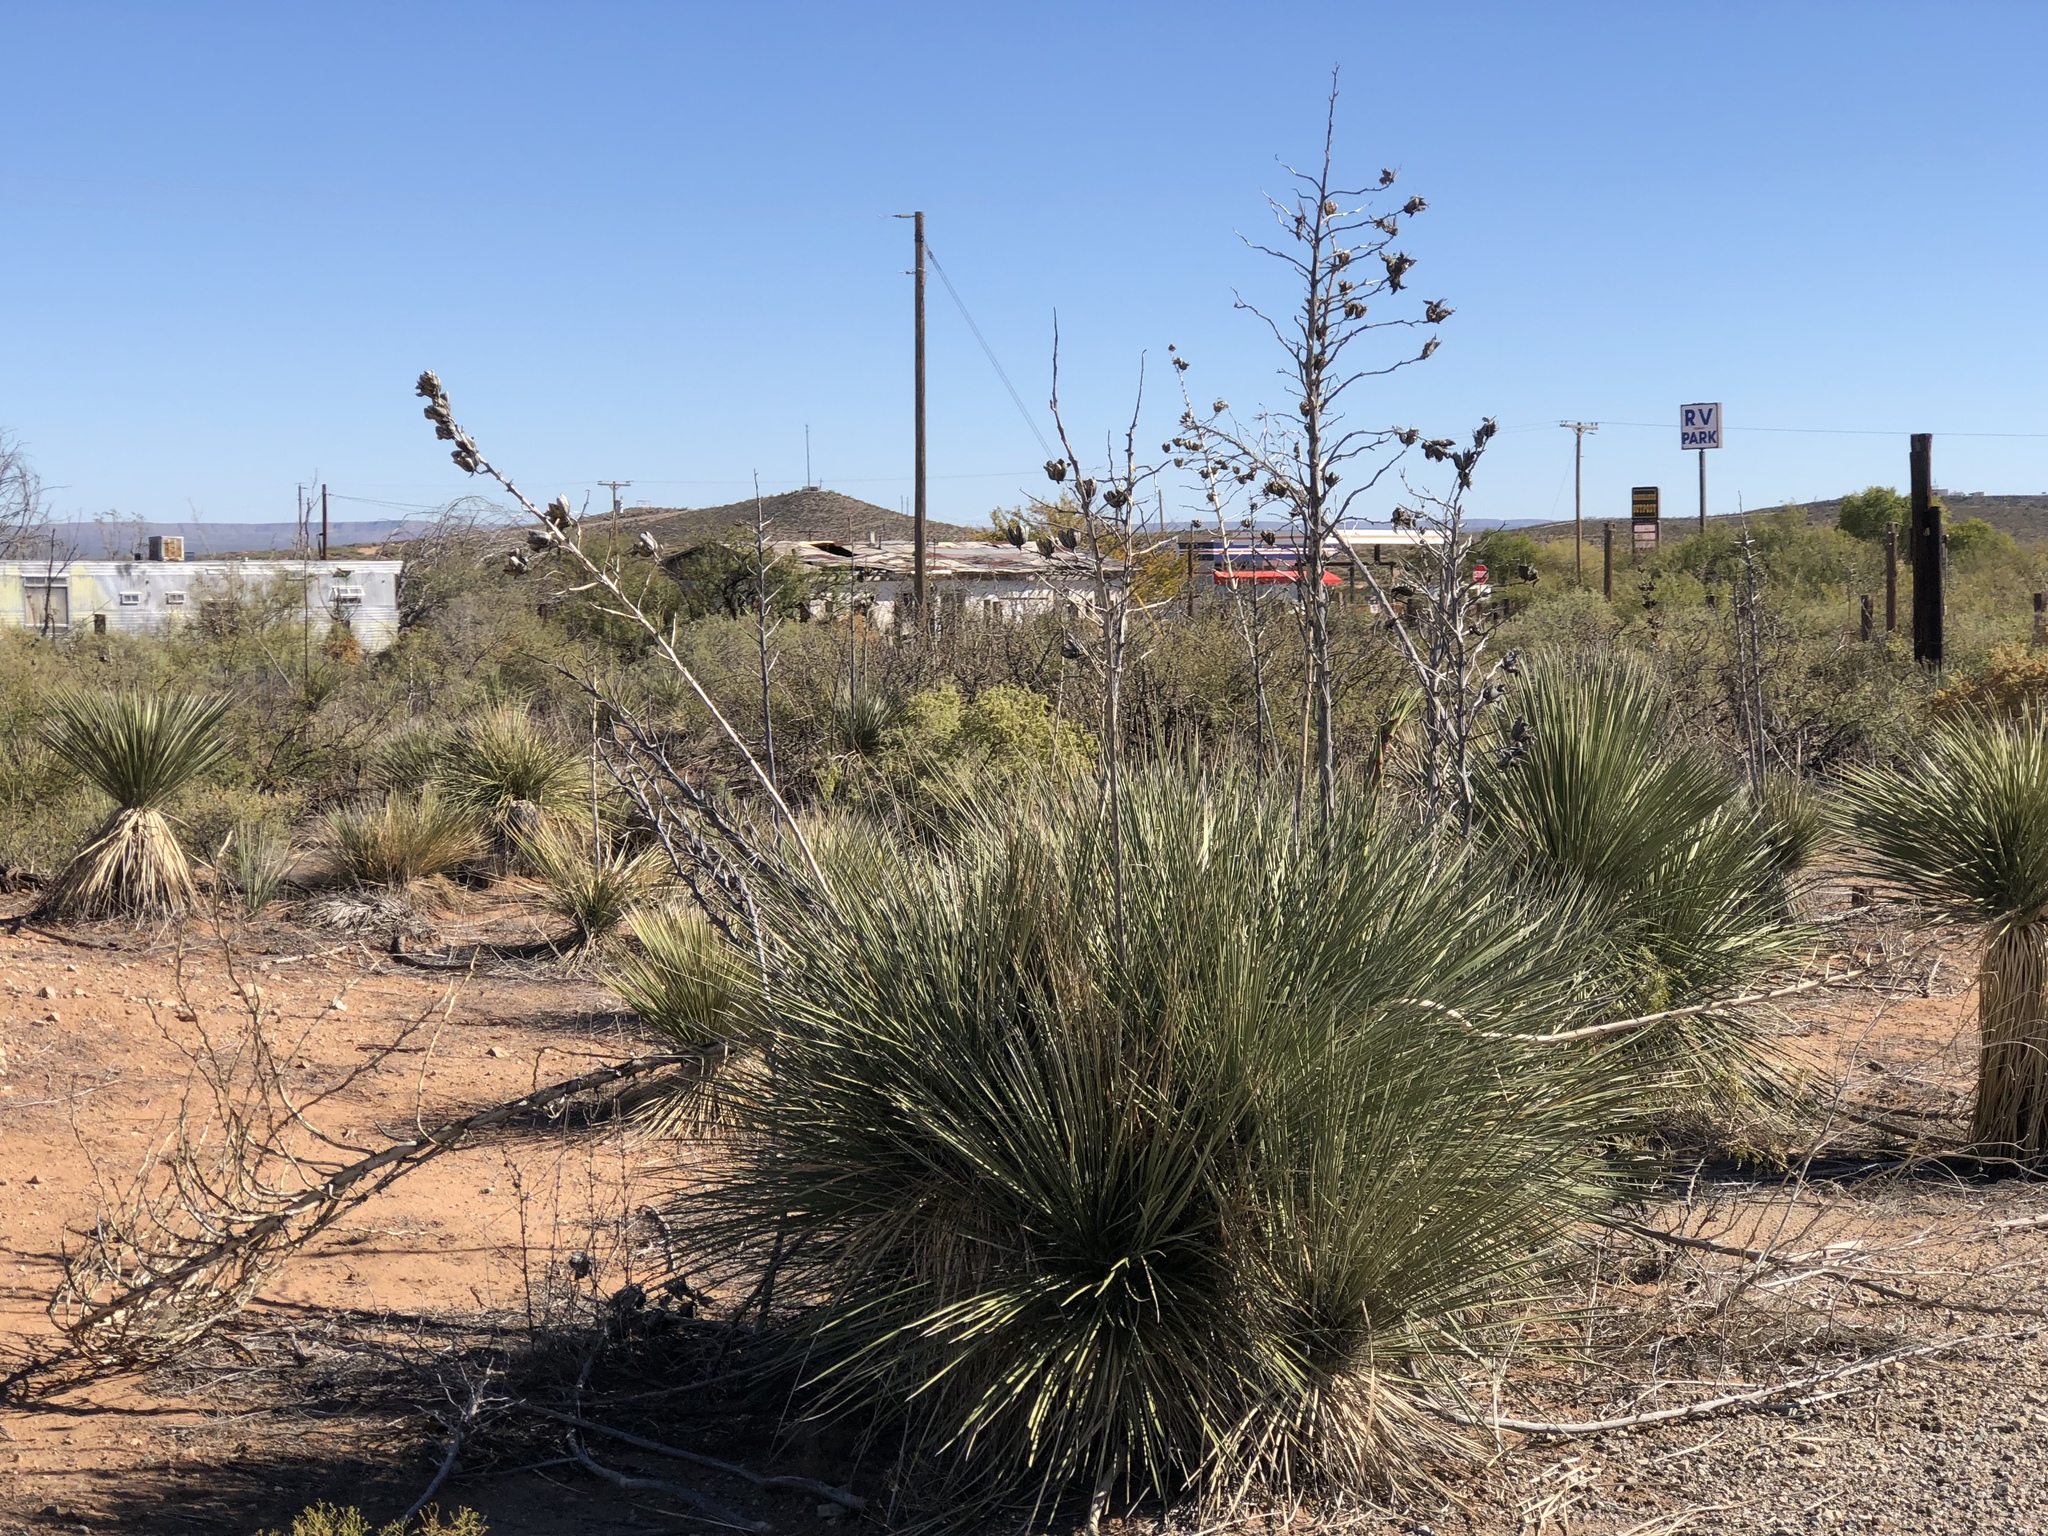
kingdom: Plantae
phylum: Tracheophyta
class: Liliopsida
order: Asparagales
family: Asparagaceae
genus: Yucca
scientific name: Yucca elata
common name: Palmella
